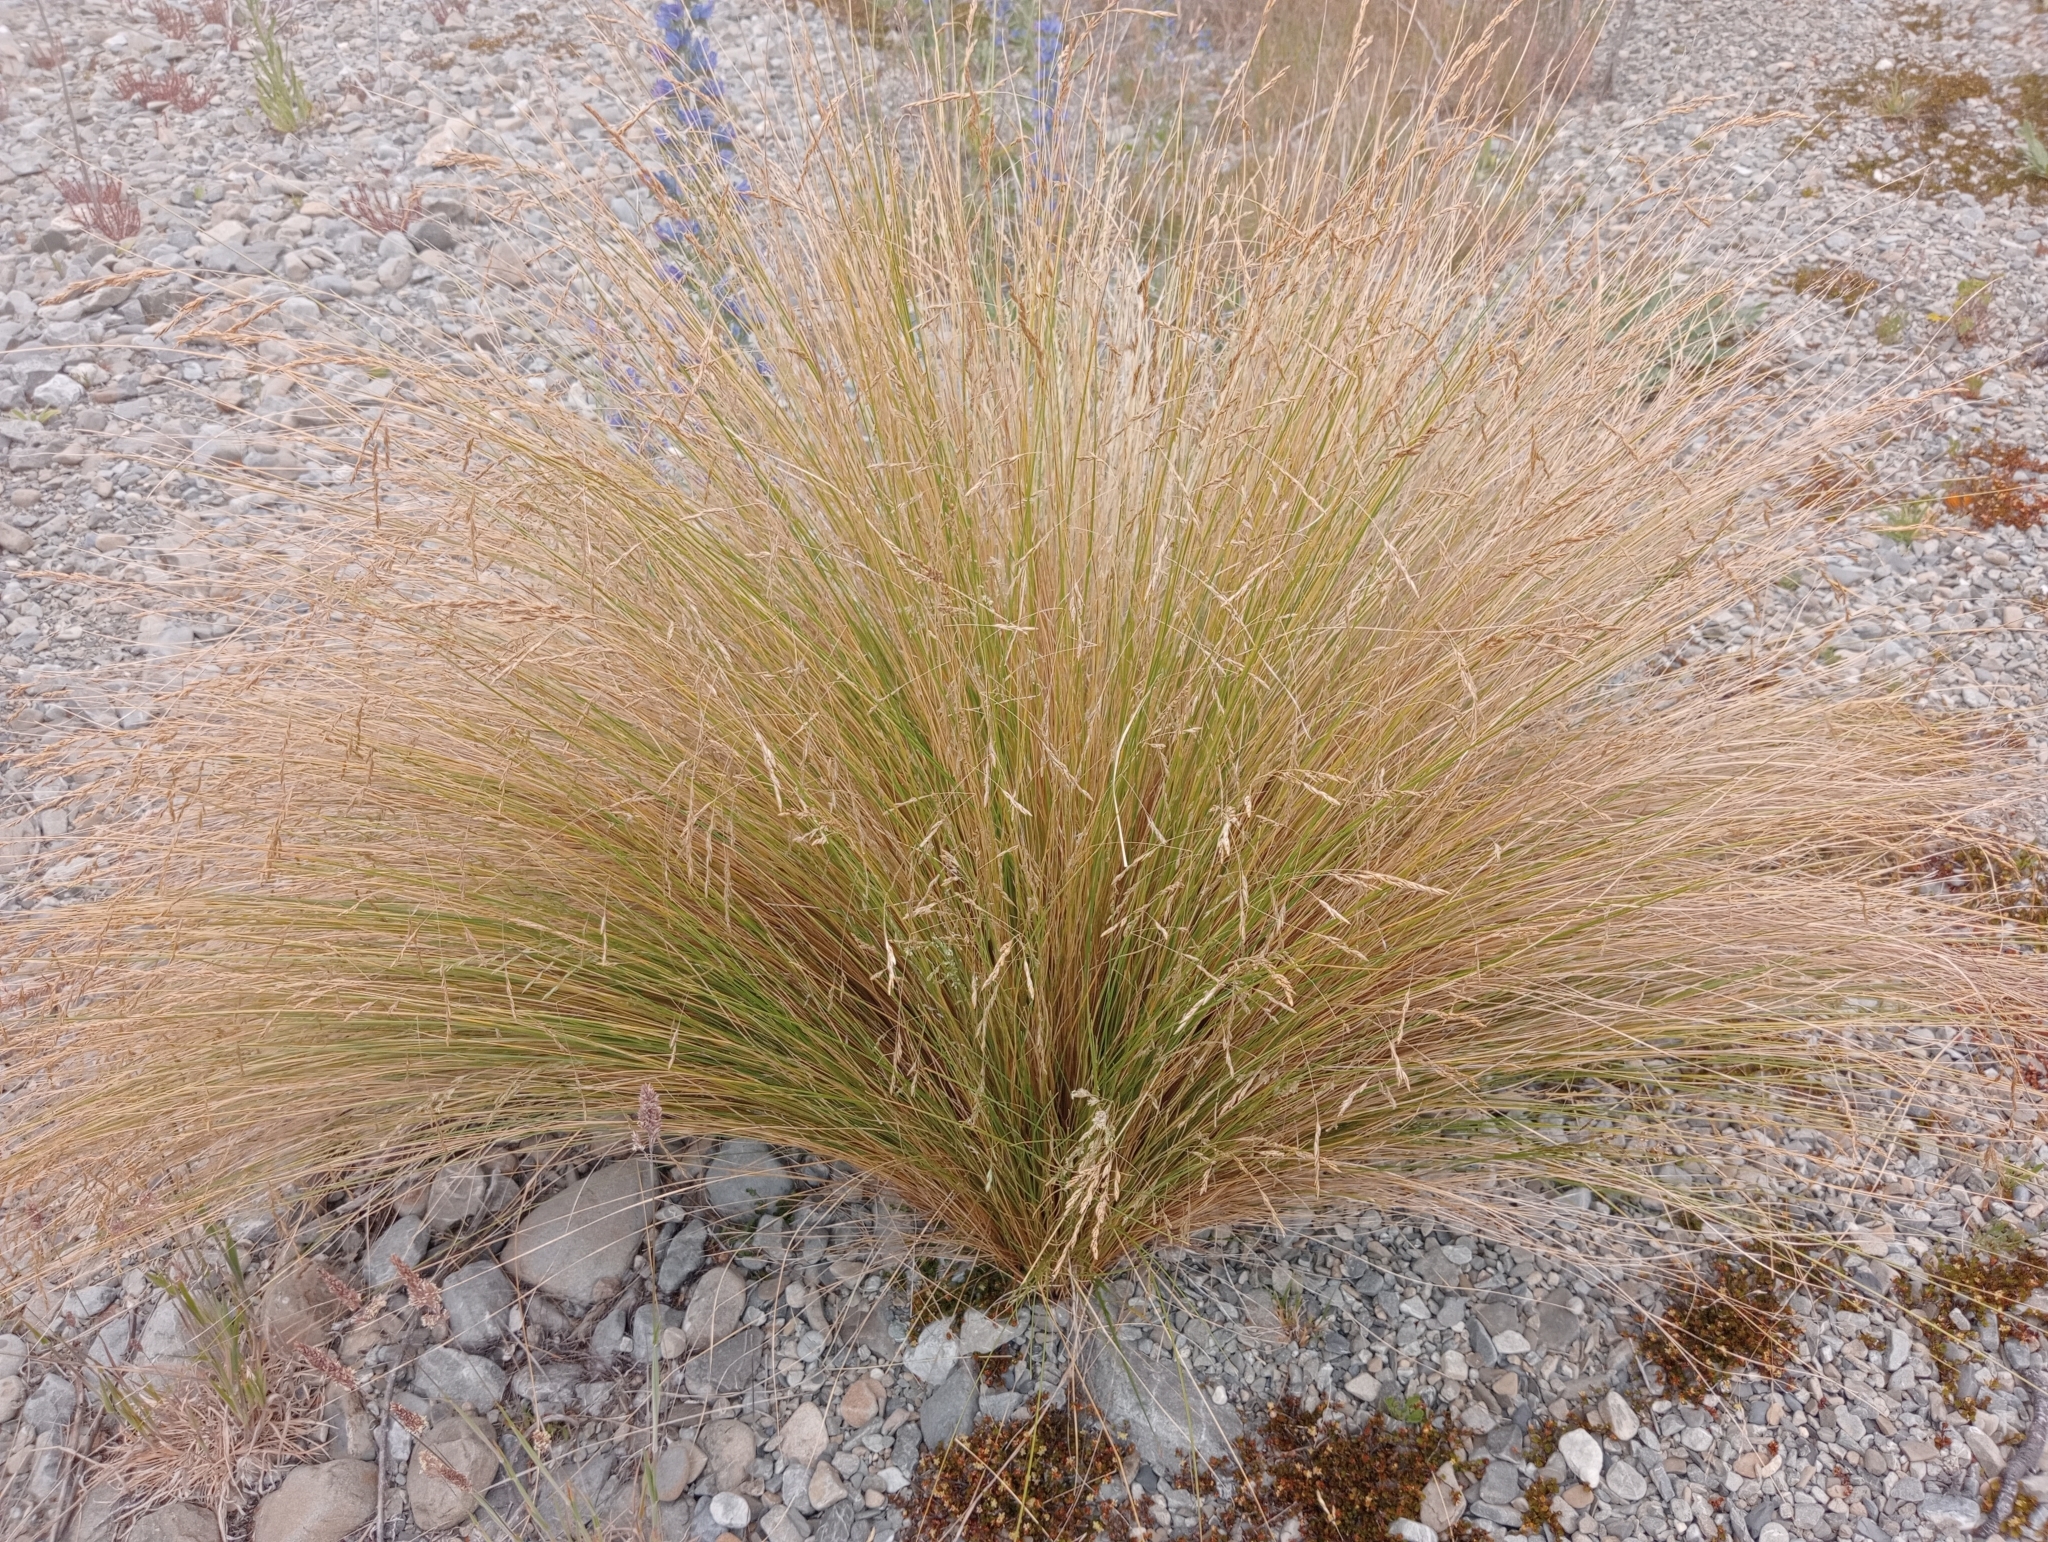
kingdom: Plantae
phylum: Tracheophyta
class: Liliopsida
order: Poales
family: Poaceae
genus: Poa
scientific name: Poa cita
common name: Silver tussock
